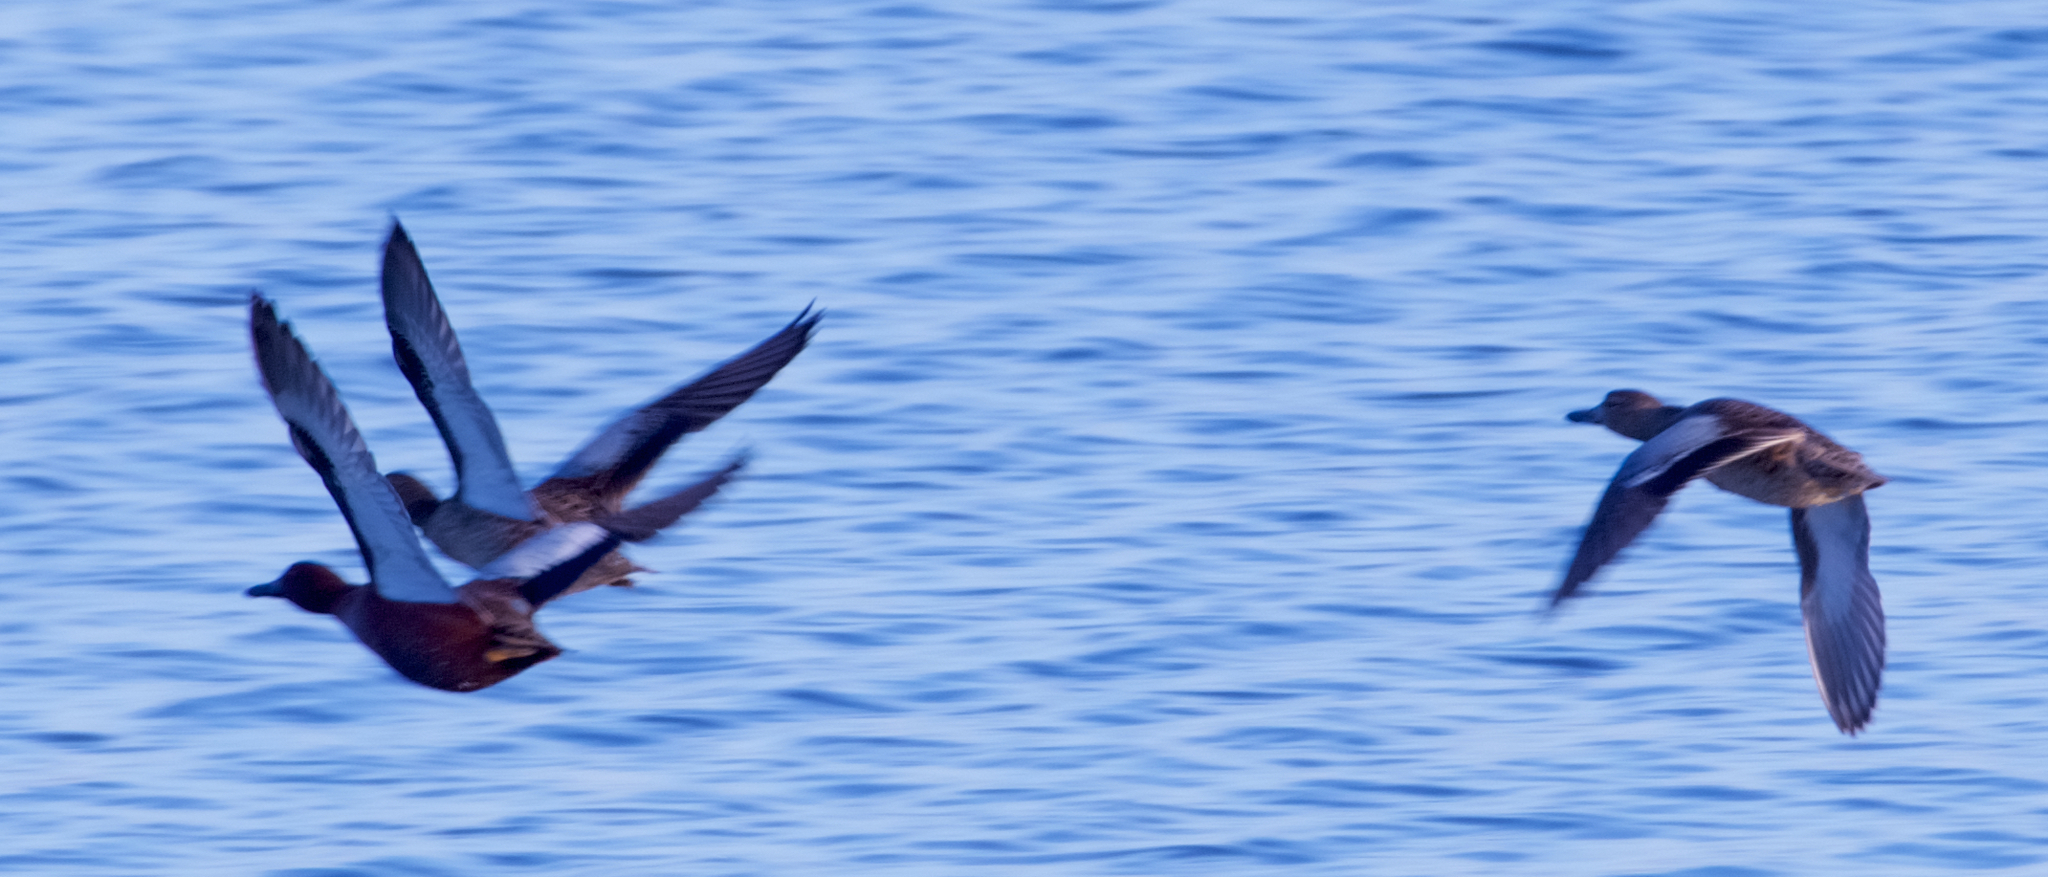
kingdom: Animalia
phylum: Chordata
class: Aves
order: Anseriformes
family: Anatidae
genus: Spatula
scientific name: Spatula cyanoptera
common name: Cinnamon teal
